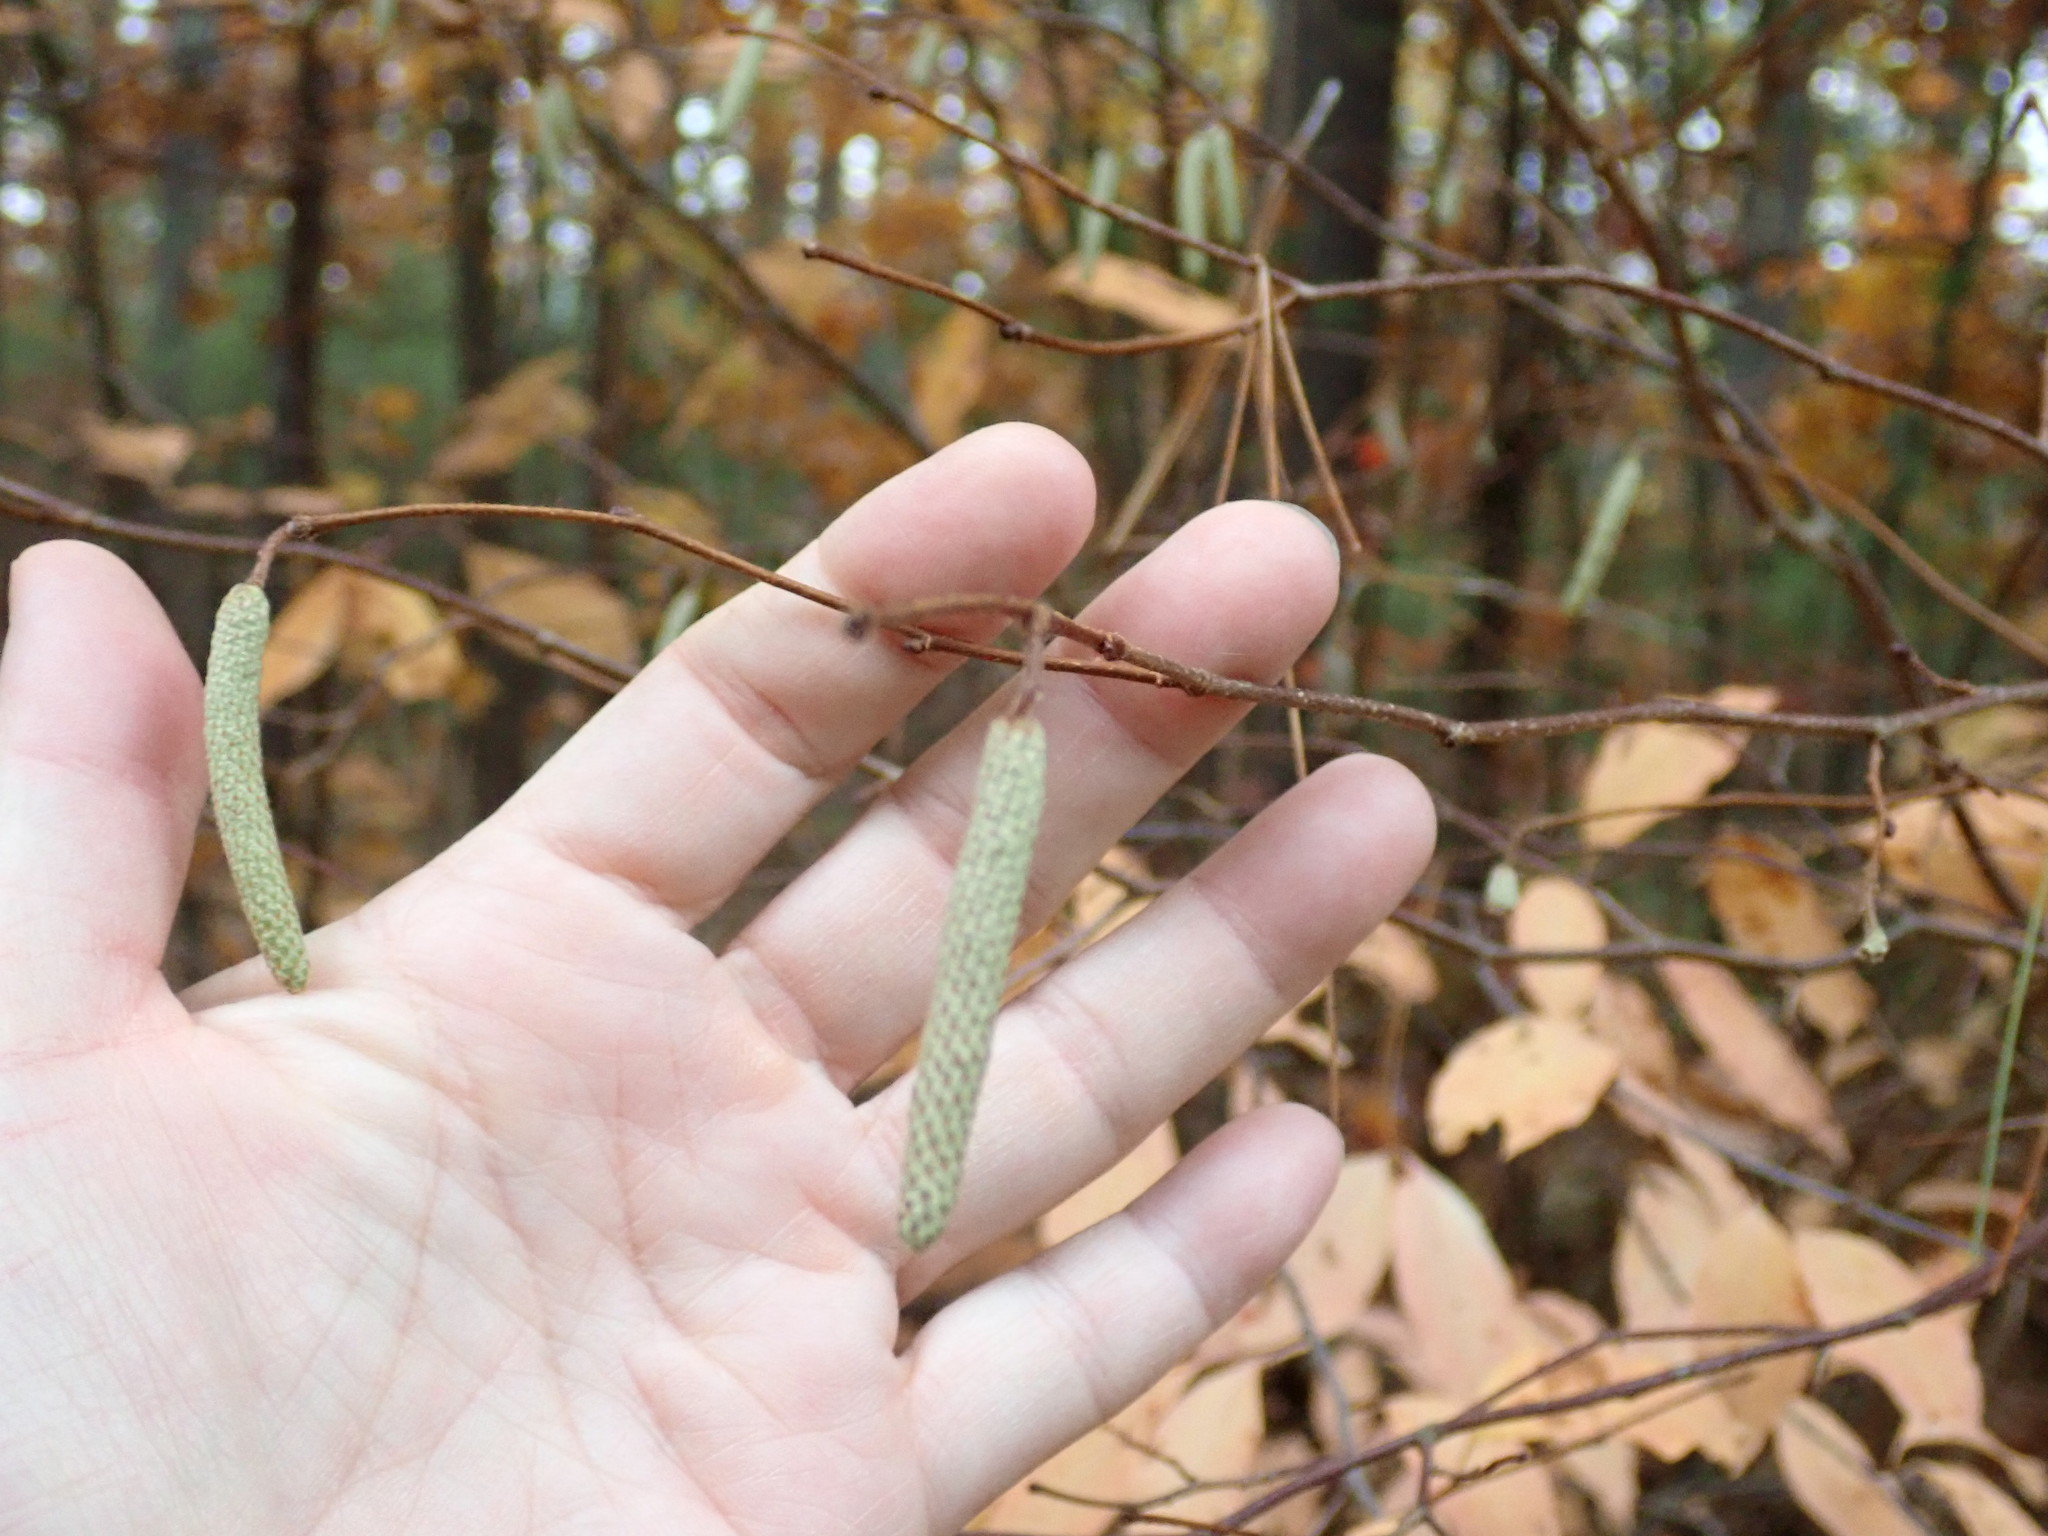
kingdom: Plantae
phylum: Tracheophyta
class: Magnoliopsida
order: Fagales
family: Betulaceae
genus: Corylus
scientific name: Corylus cornuta
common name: Beaked hazel
